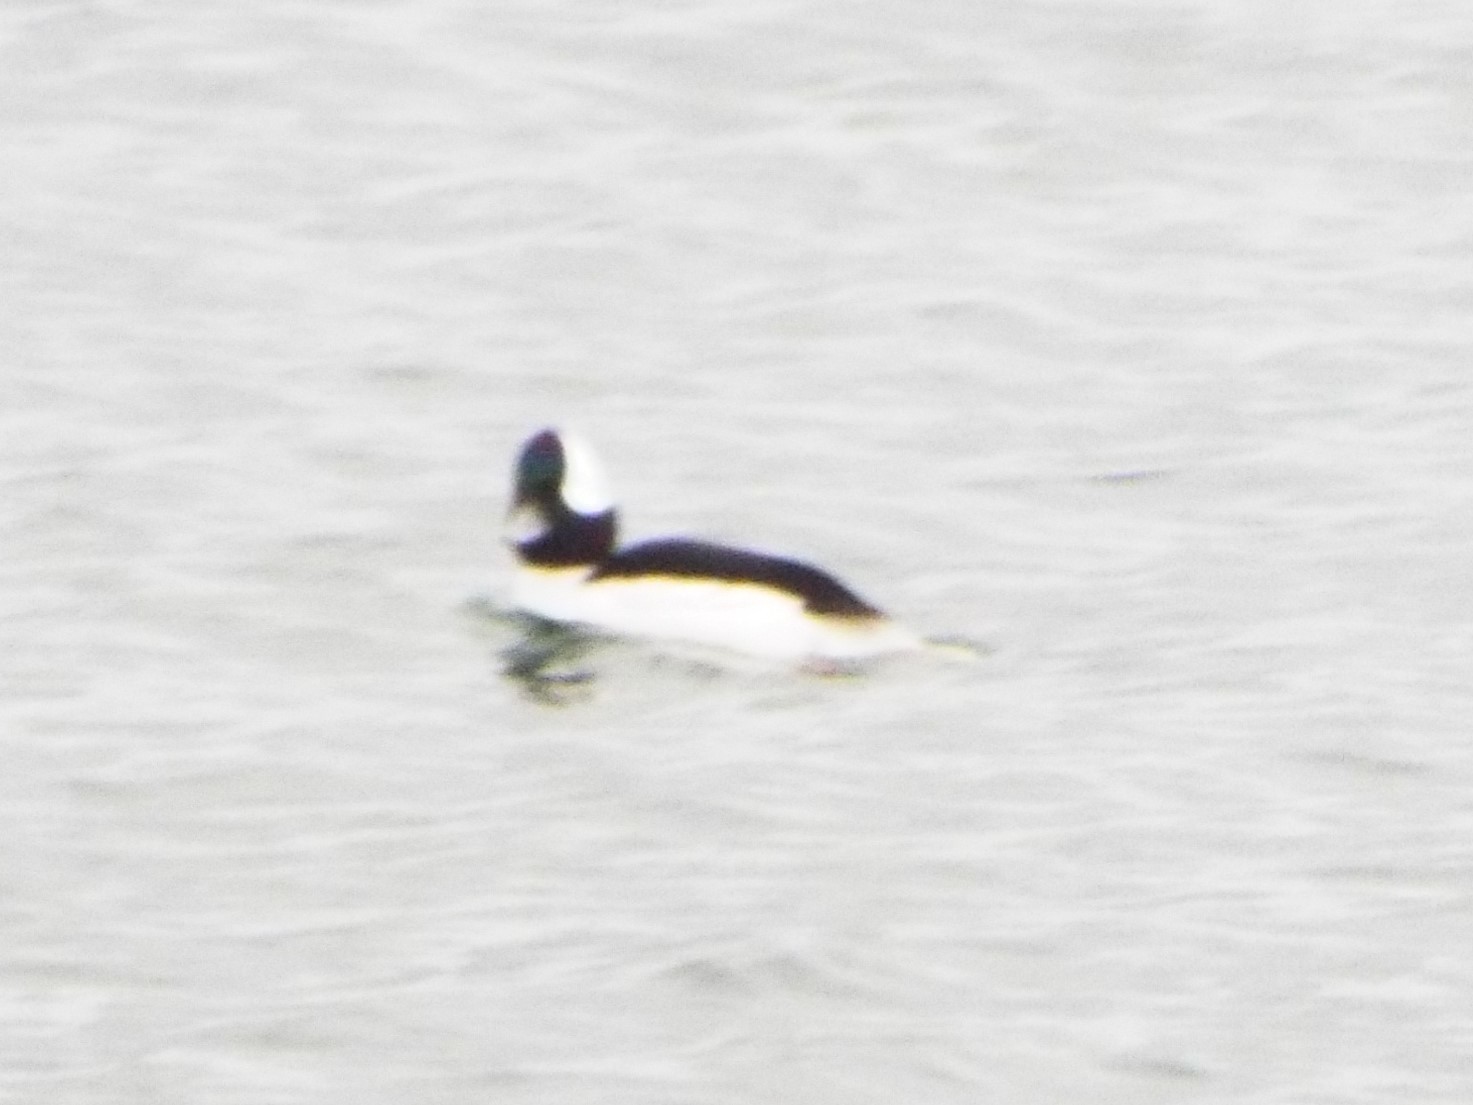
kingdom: Animalia
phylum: Chordata
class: Aves
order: Anseriformes
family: Anatidae
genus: Bucephala
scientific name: Bucephala albeola
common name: Bufflehead
